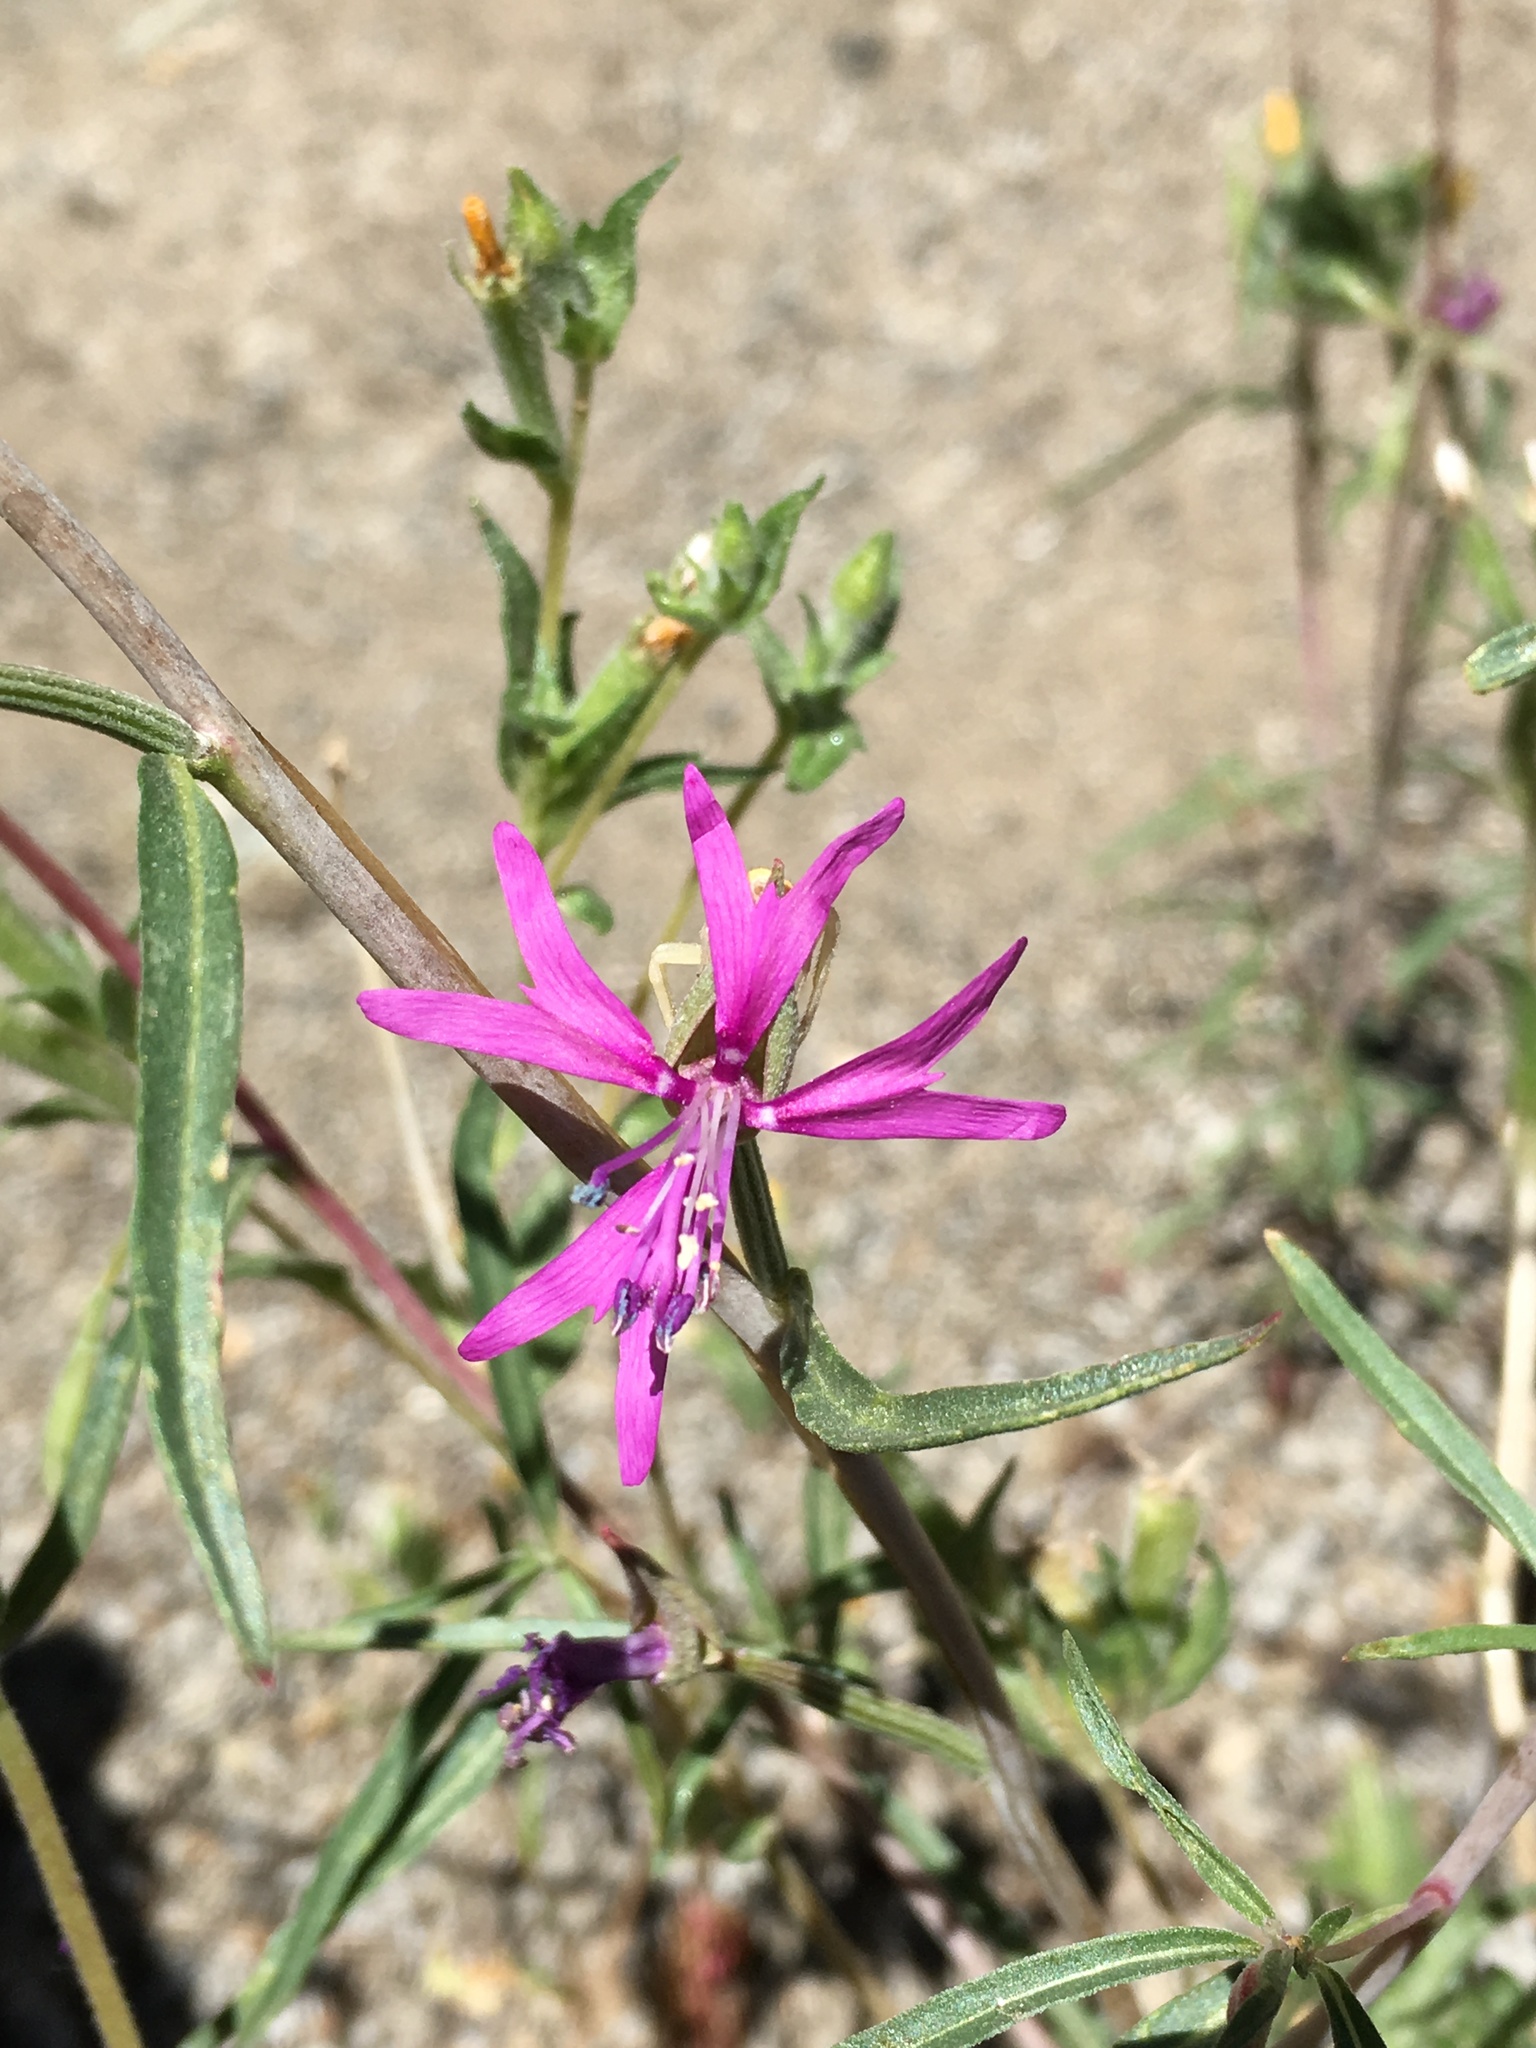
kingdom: Plantae
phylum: Tracheophyta
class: Magnoliopsida
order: Myrtales
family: Onagraceae
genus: Clarkia
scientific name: Clarkia xantiana
